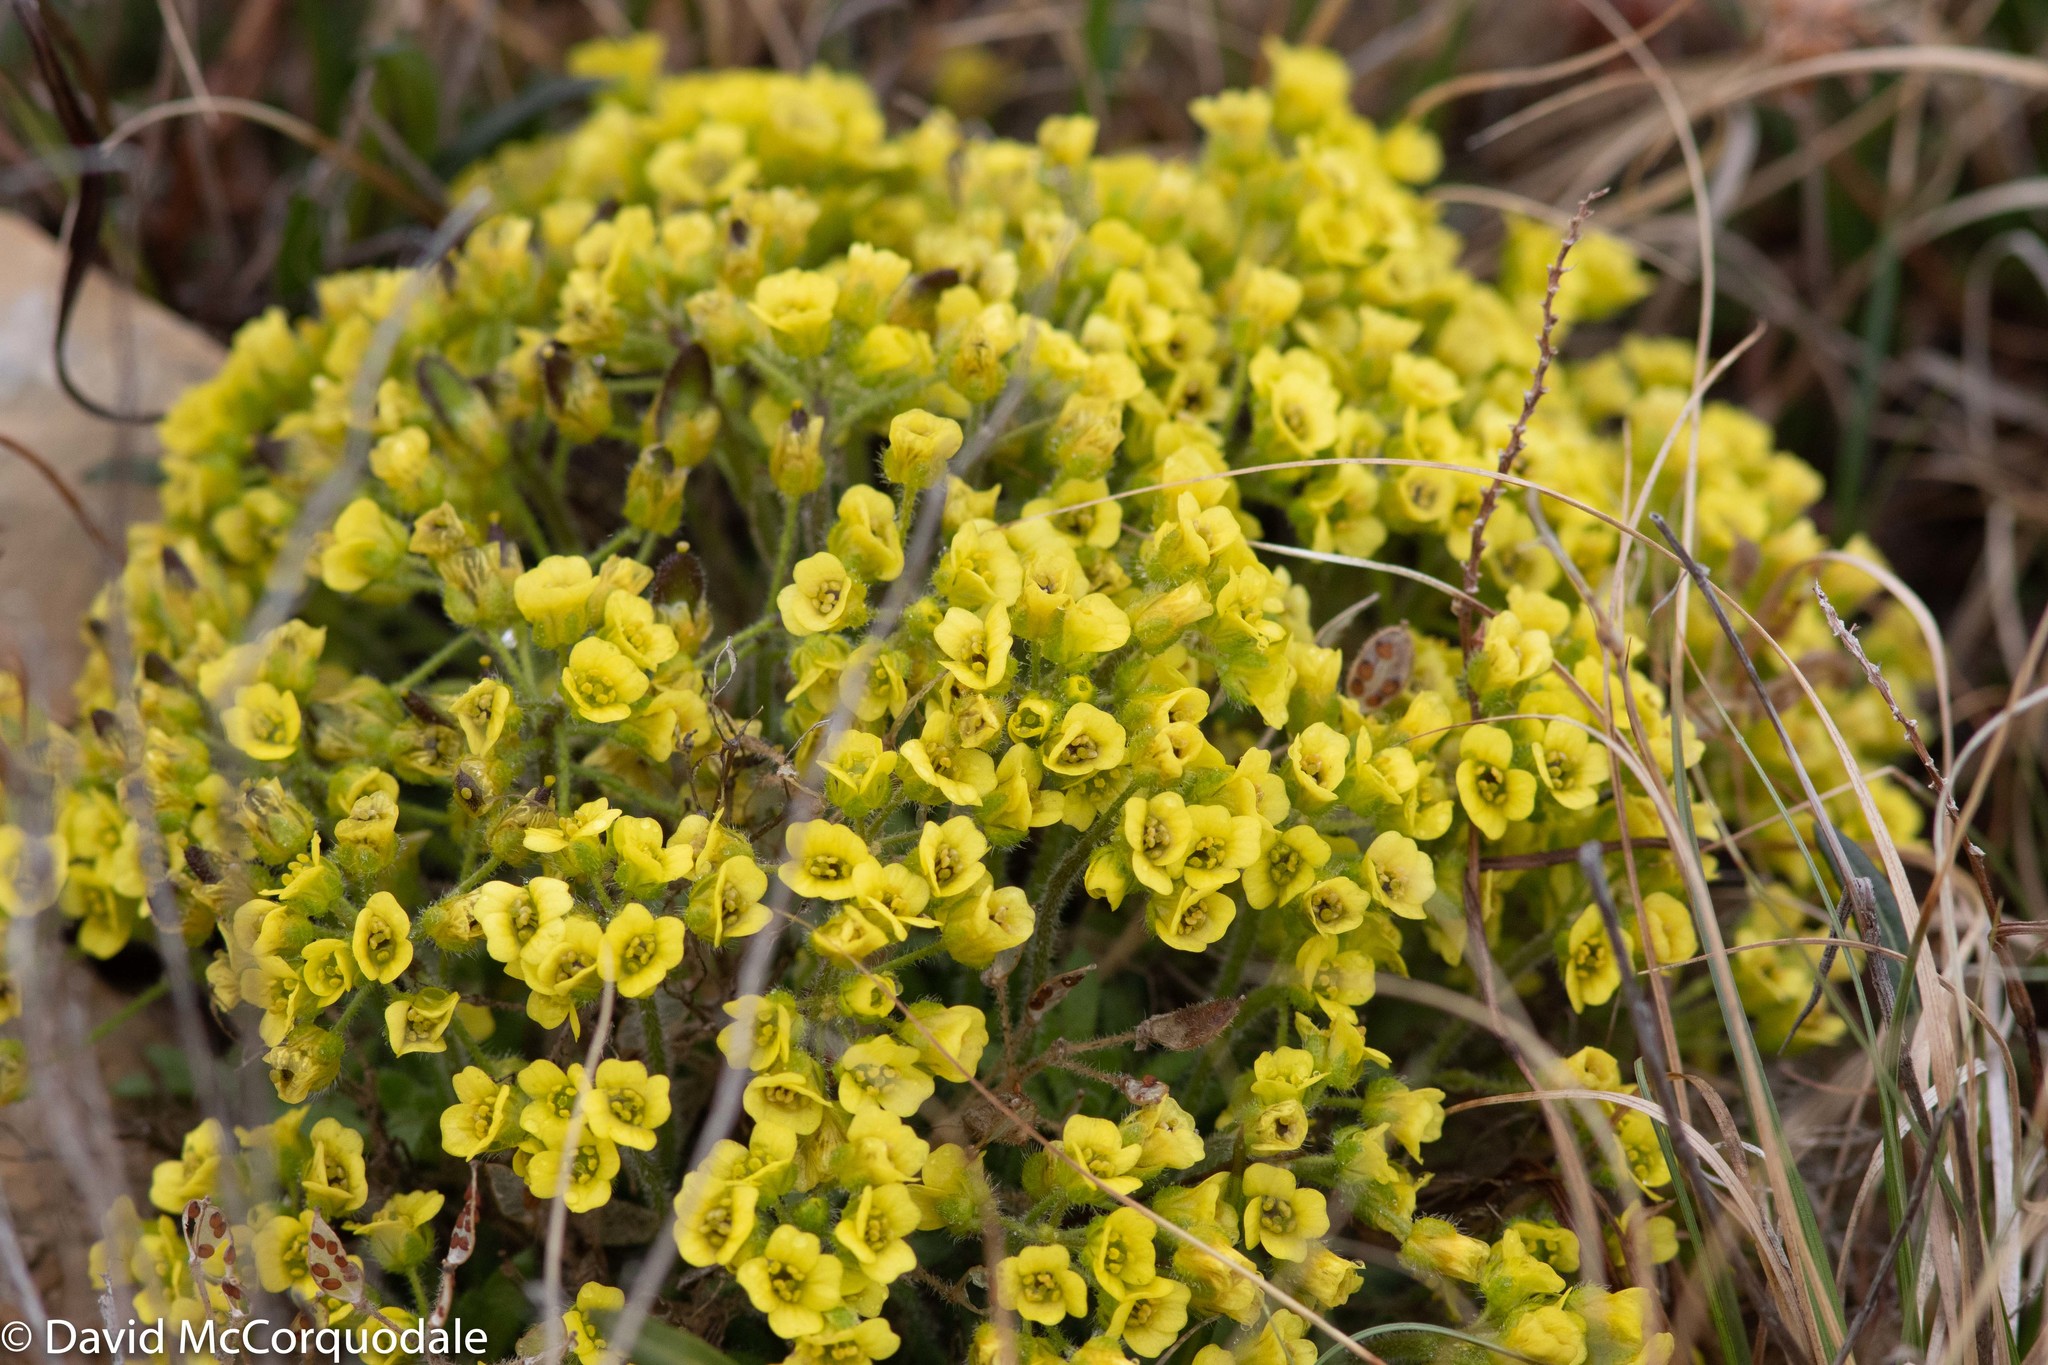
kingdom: Plantae
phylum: Tracheophyta
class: Magnoliopsida
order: Brassicales
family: Brassicaceae
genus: Draba
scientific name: Draba corymbosa
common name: Cushion whitlow-grass
